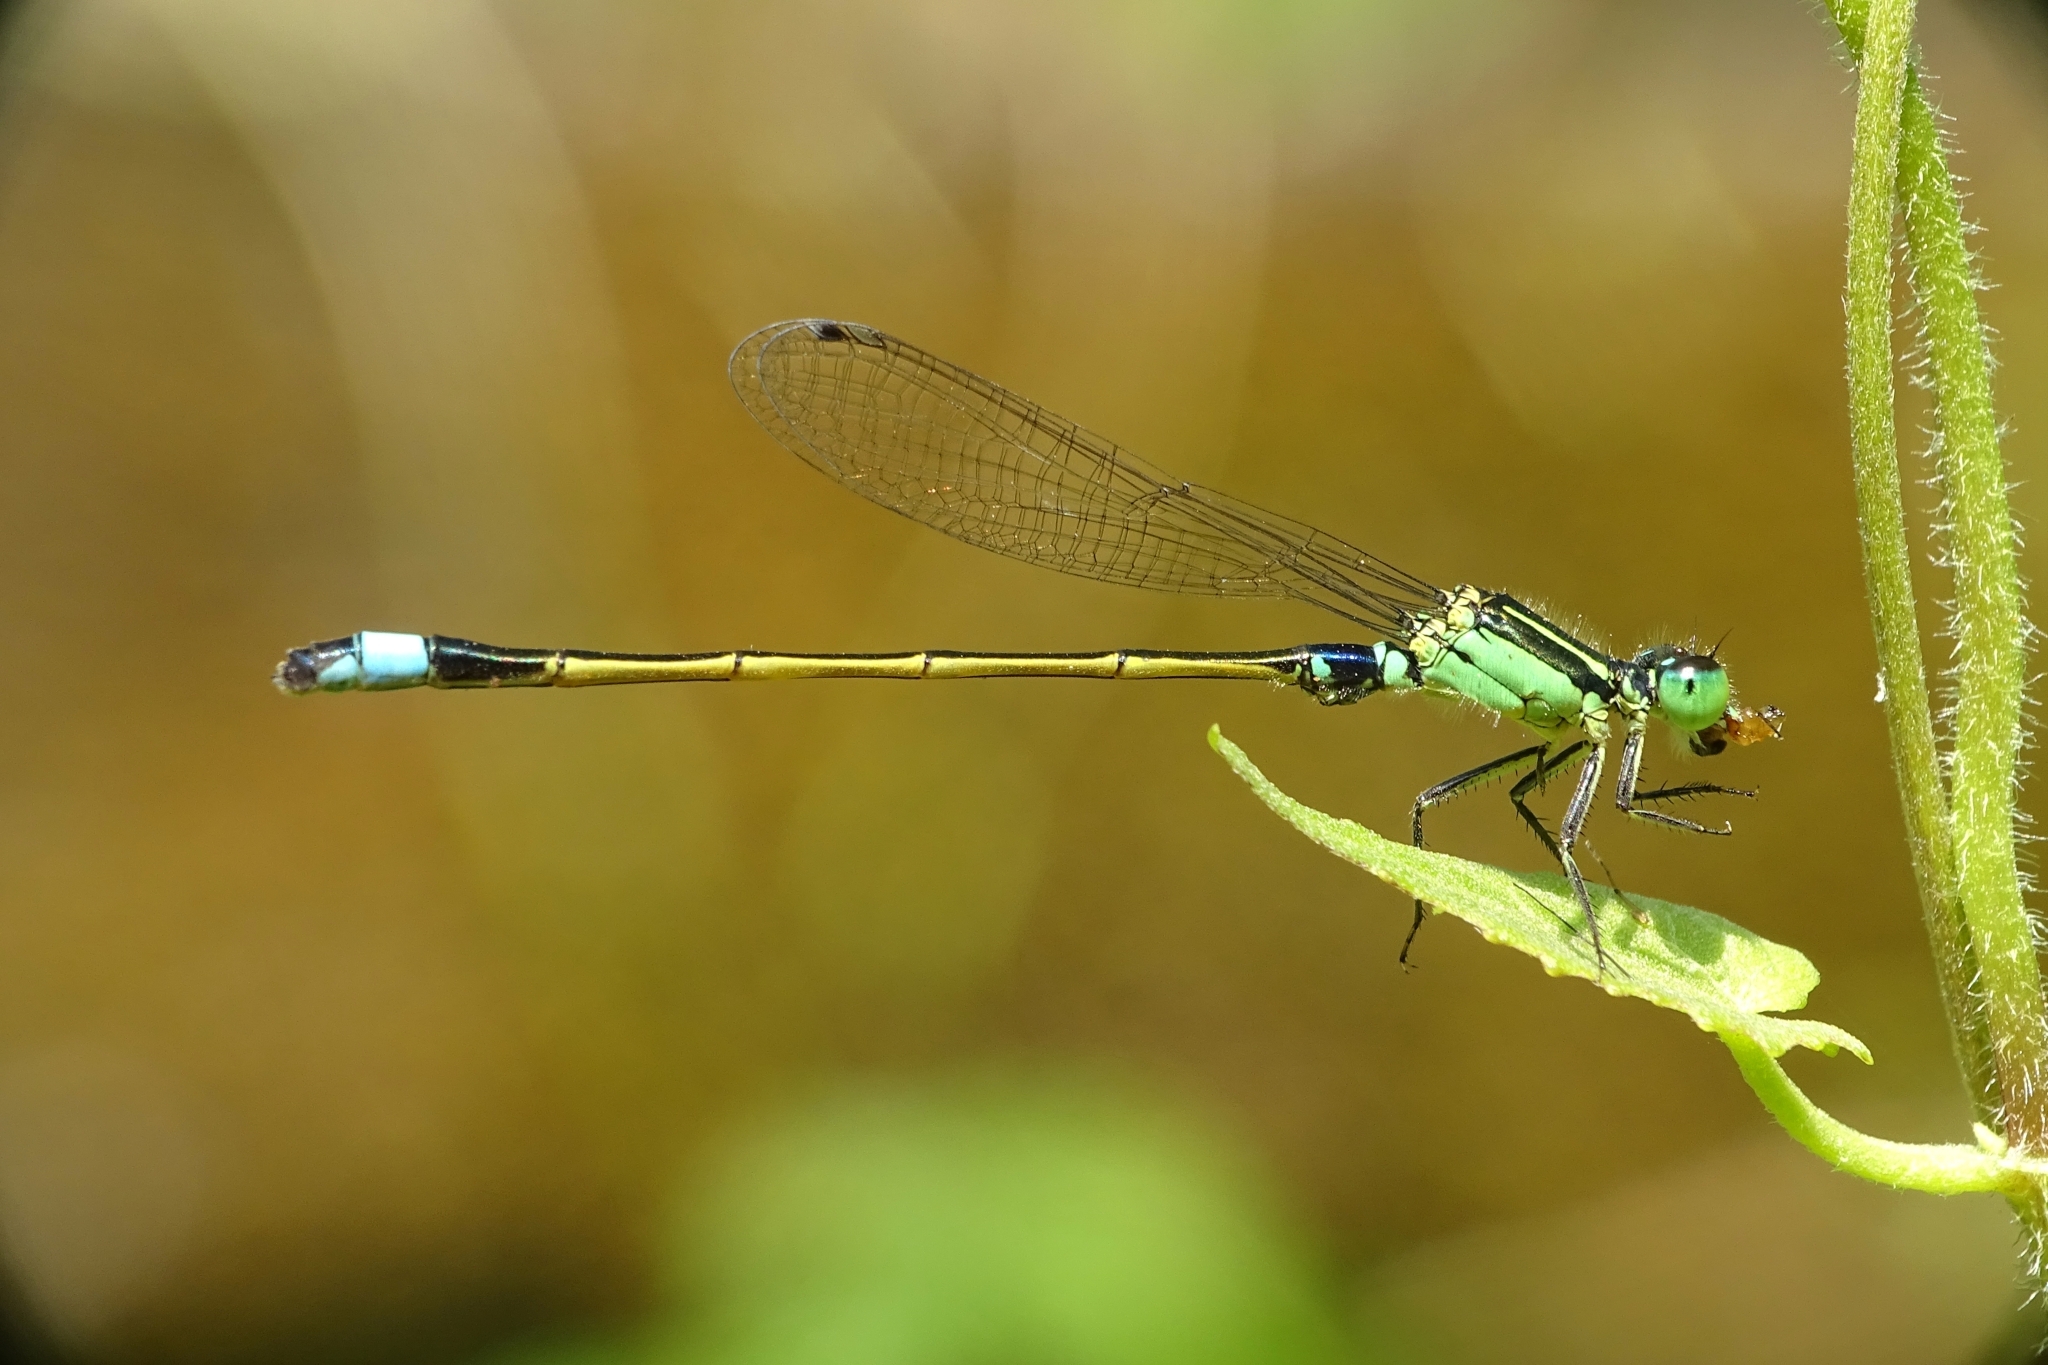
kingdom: Animalia
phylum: Arthropoda
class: Insecta
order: Odonata
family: Coenagrionidae
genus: Ischnura
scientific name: Ischnura senegalensis
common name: Tropical bluetail
